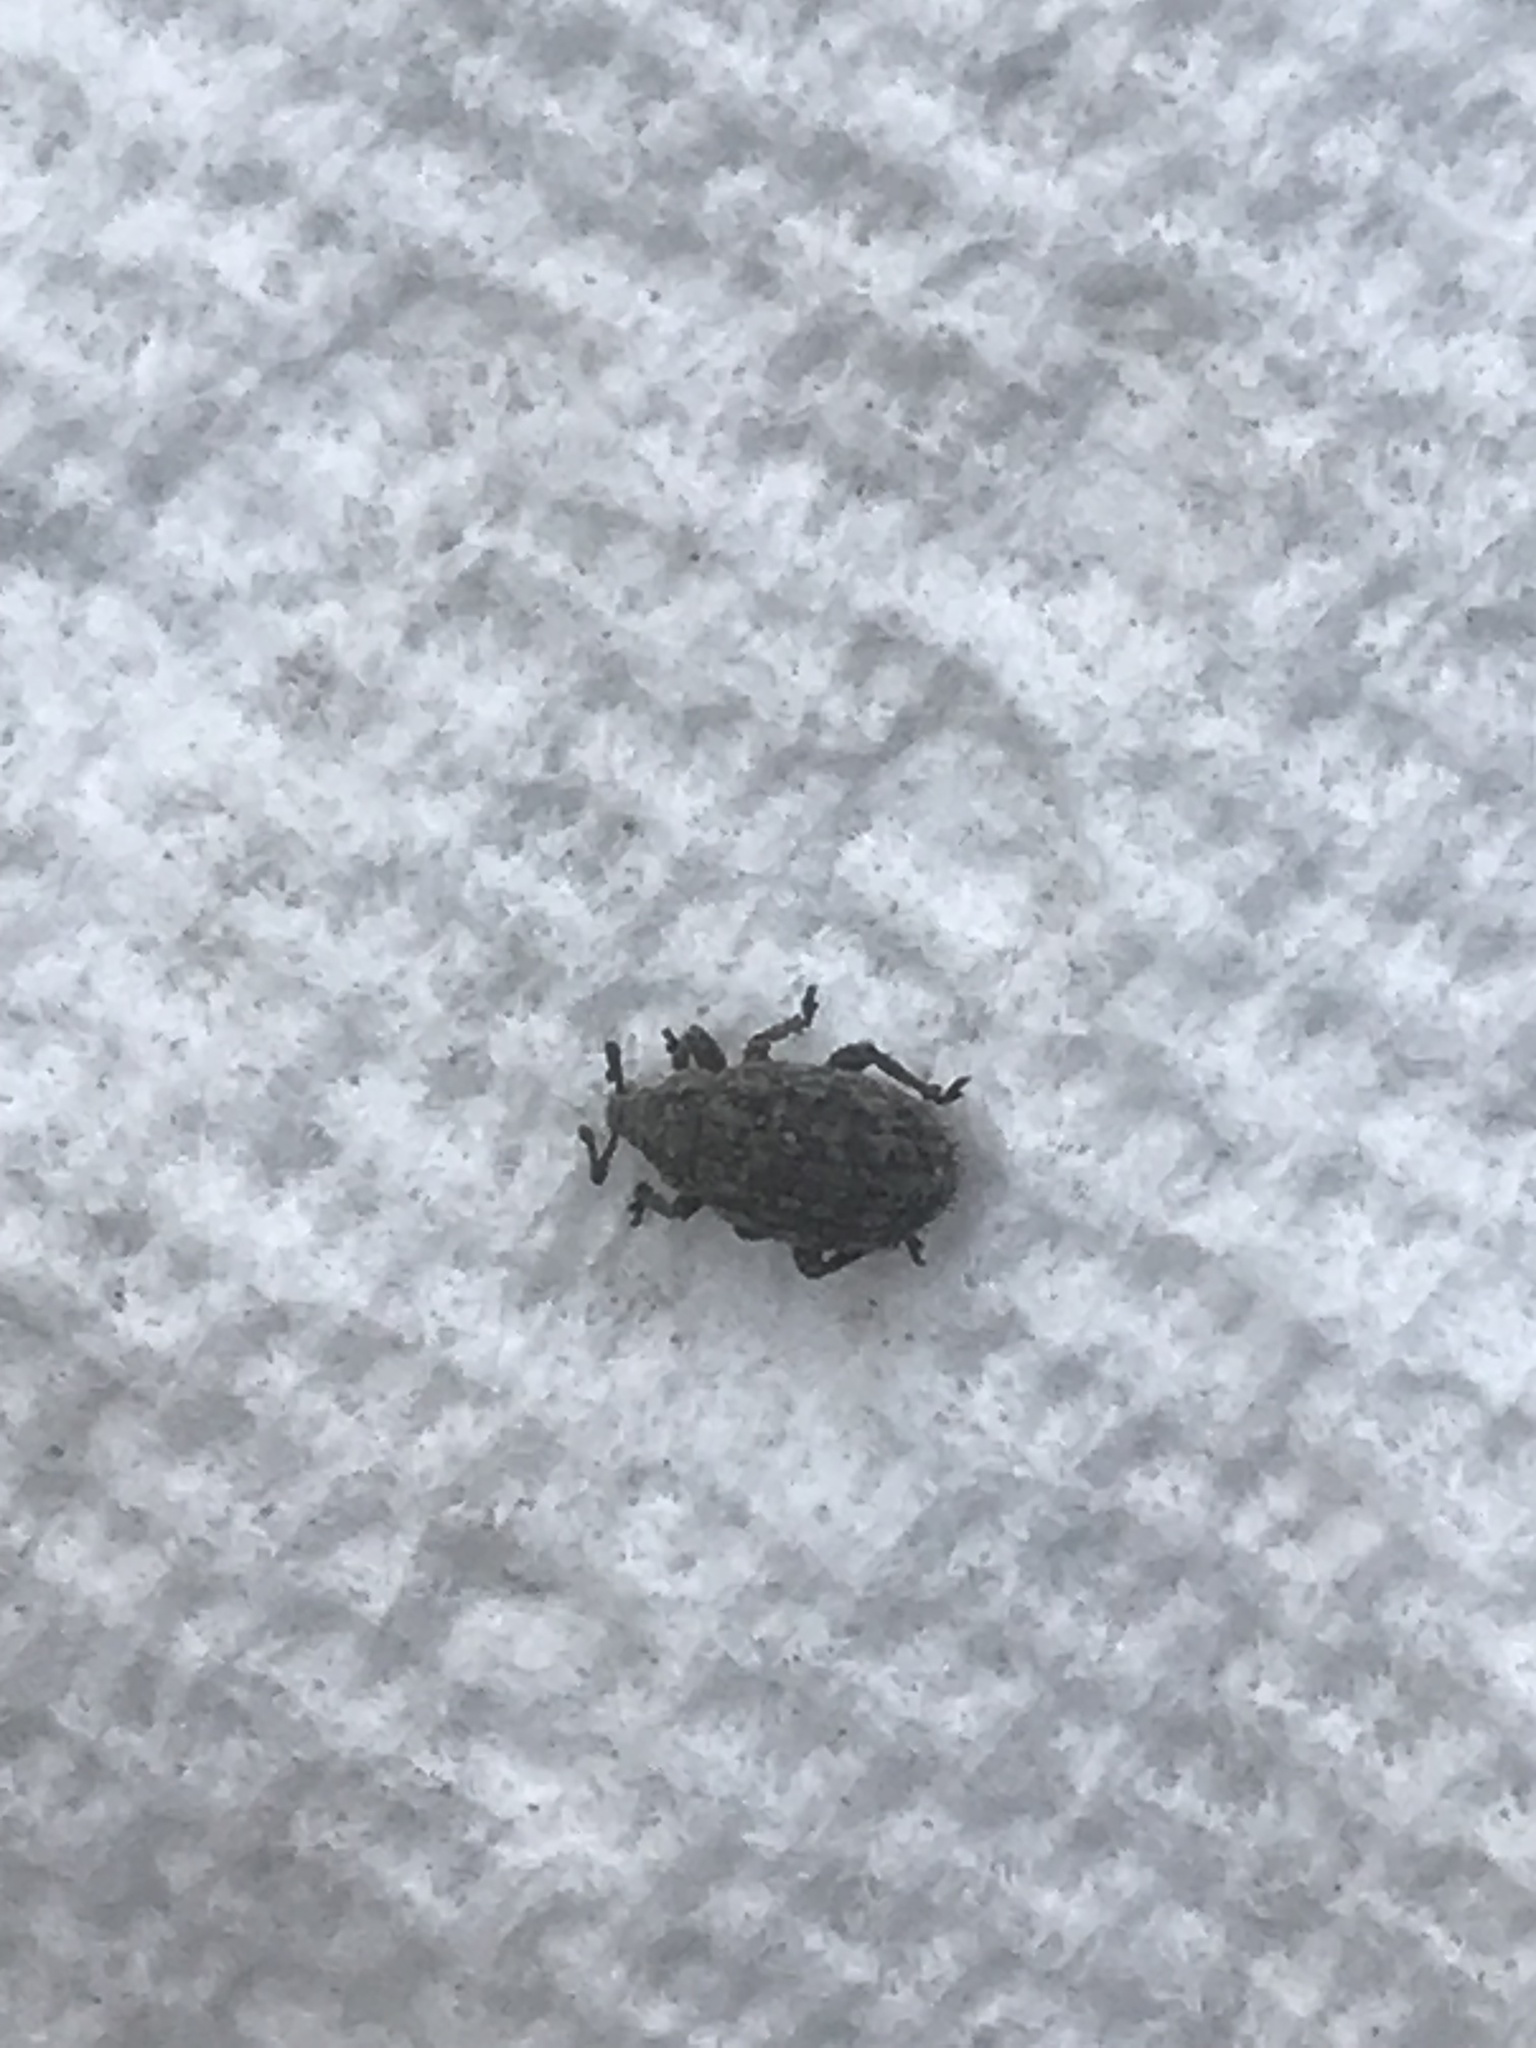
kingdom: Animalia
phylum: Arthropoda
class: Insecta
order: Coleoptera
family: Curculionidae
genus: Romualdius
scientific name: Romualdius scaber
